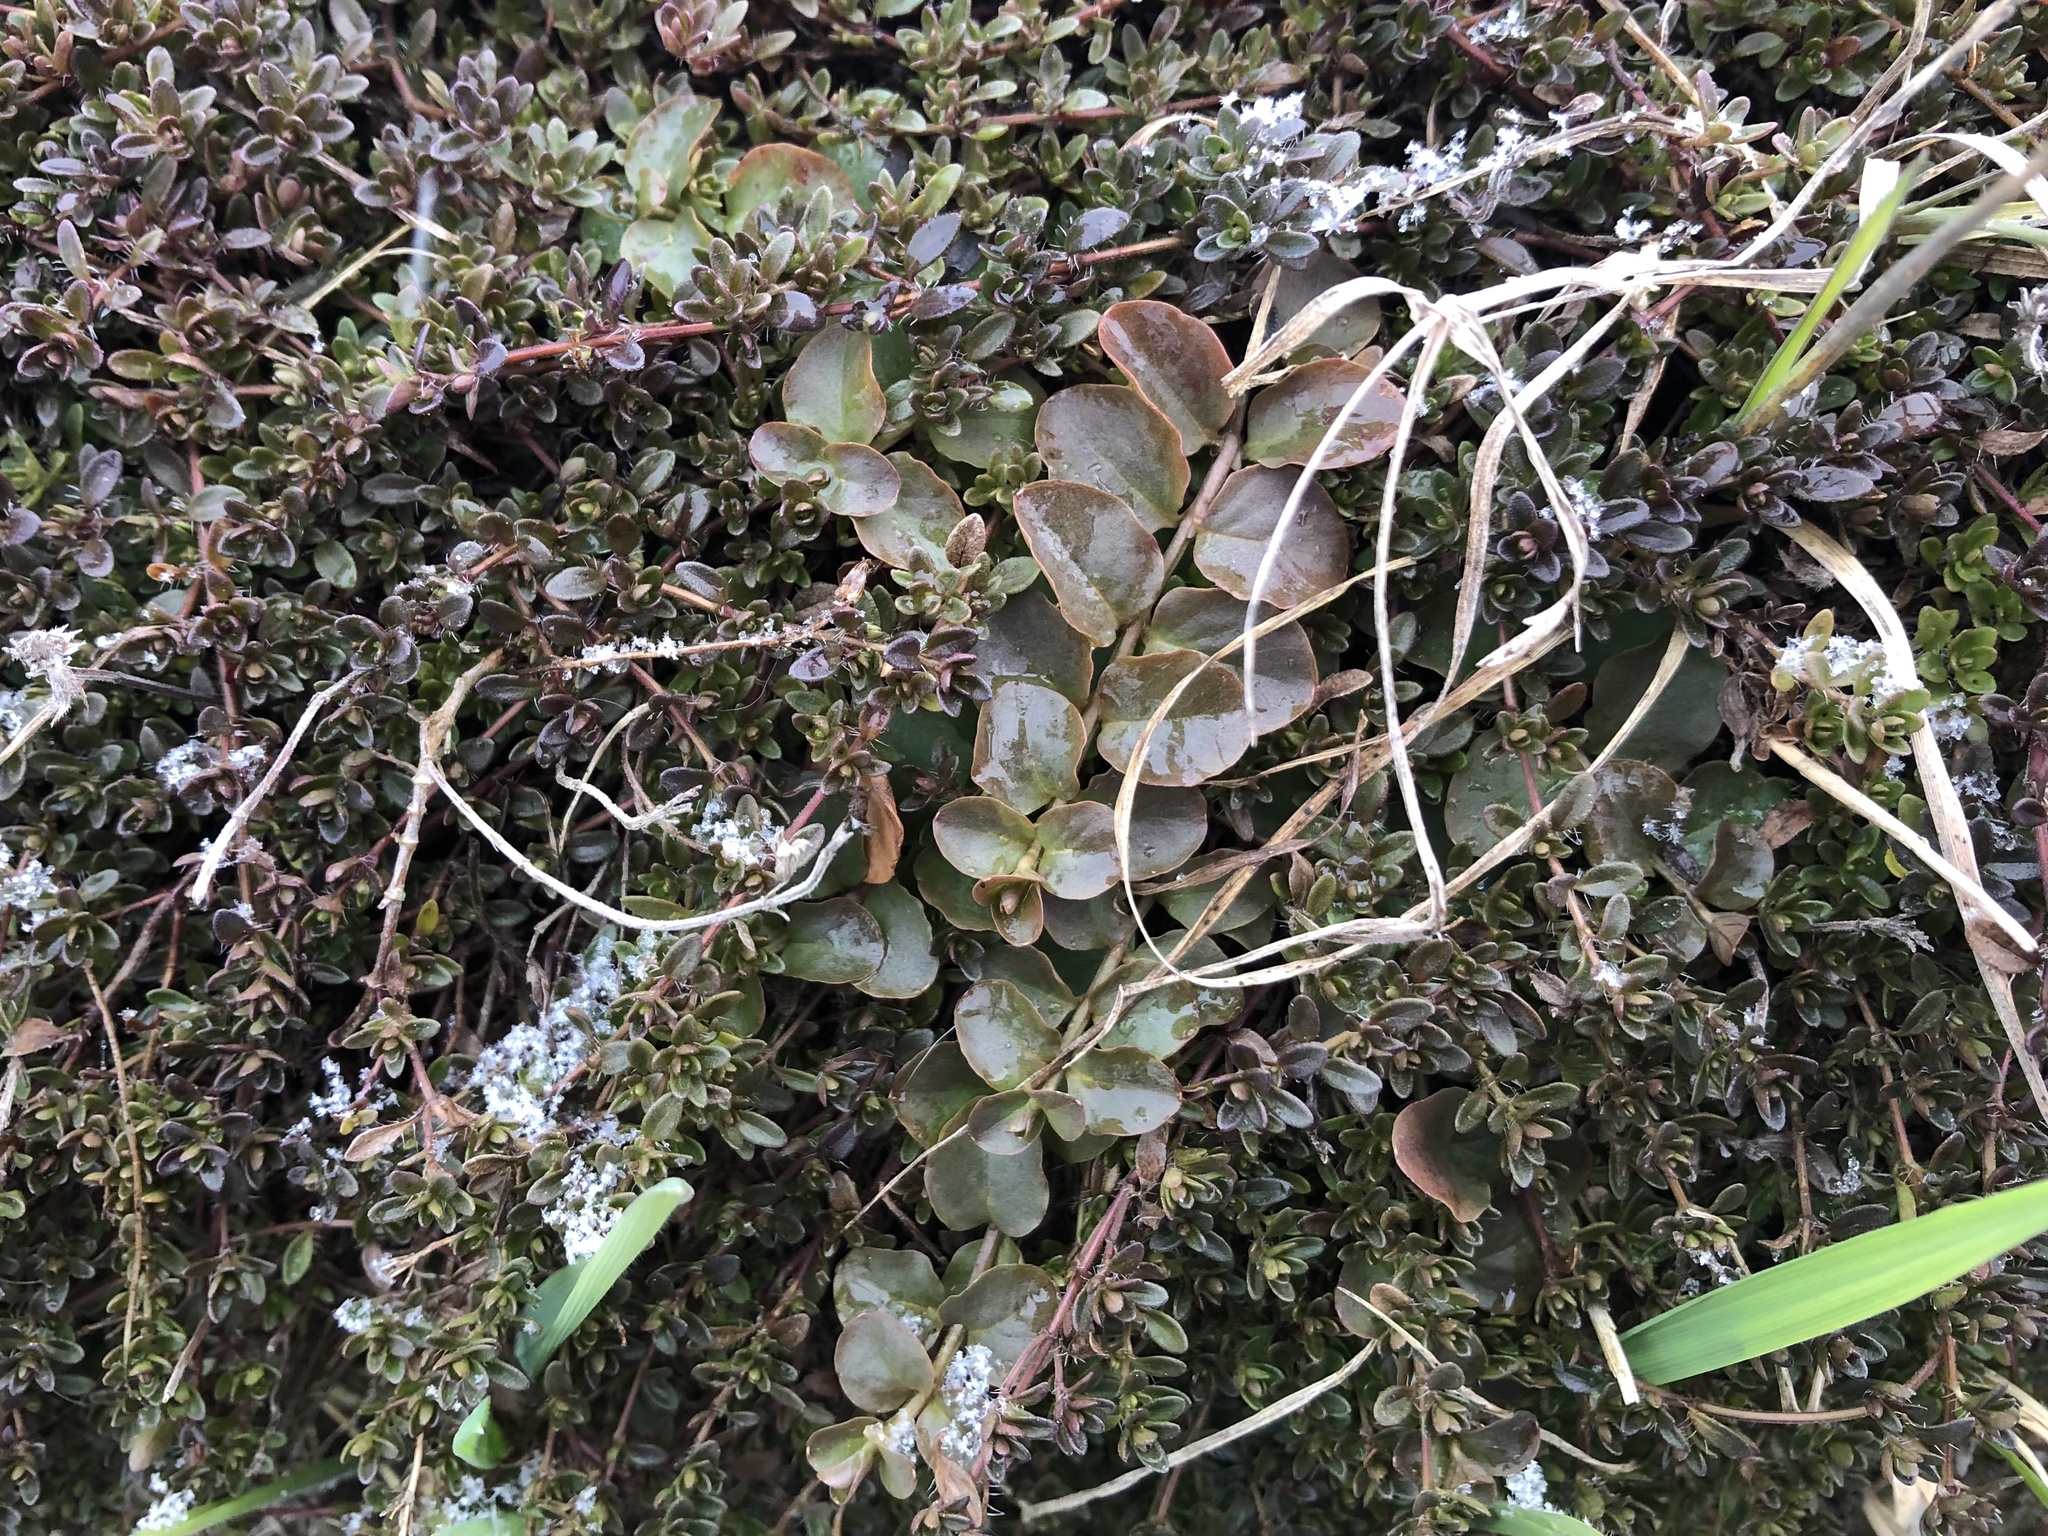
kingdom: Plantae
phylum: Tracheophyta
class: Magnoliopsida
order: Ericales
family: Primulaceae
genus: Lysimachia
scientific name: Lysimachia nummularia
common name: Moneywort
